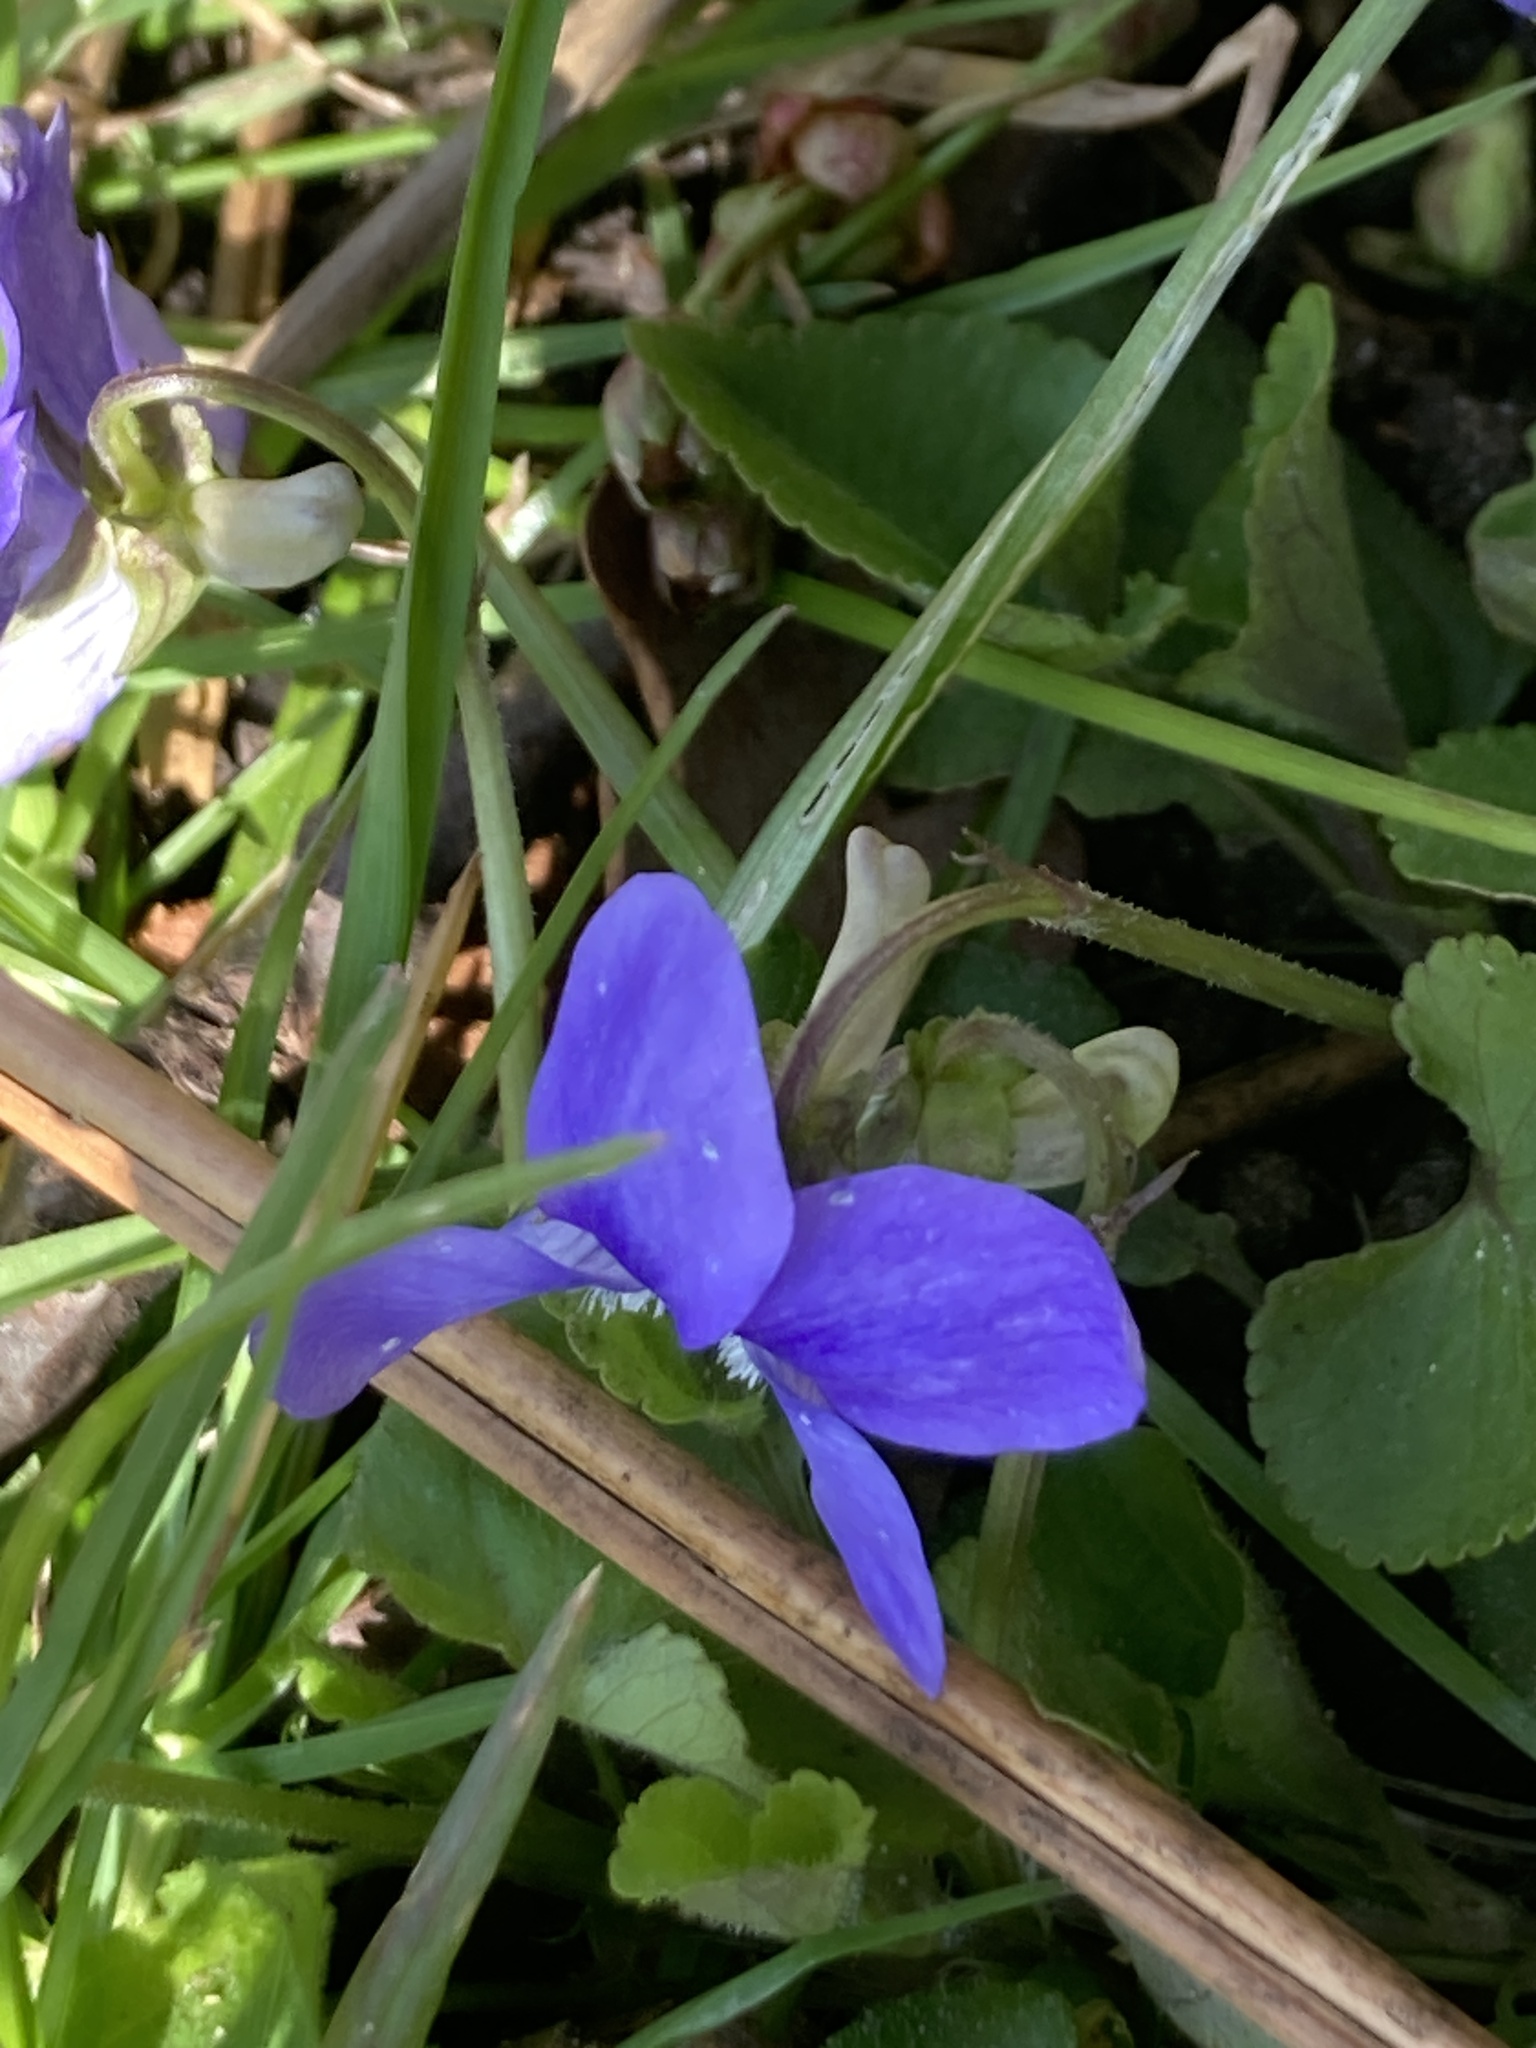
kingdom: Plantae
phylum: Tracheophyta
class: Magnoliopsida
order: Malpighiales
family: Violaceae
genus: Viola
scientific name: Viola riviniana
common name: Common dog-violet
